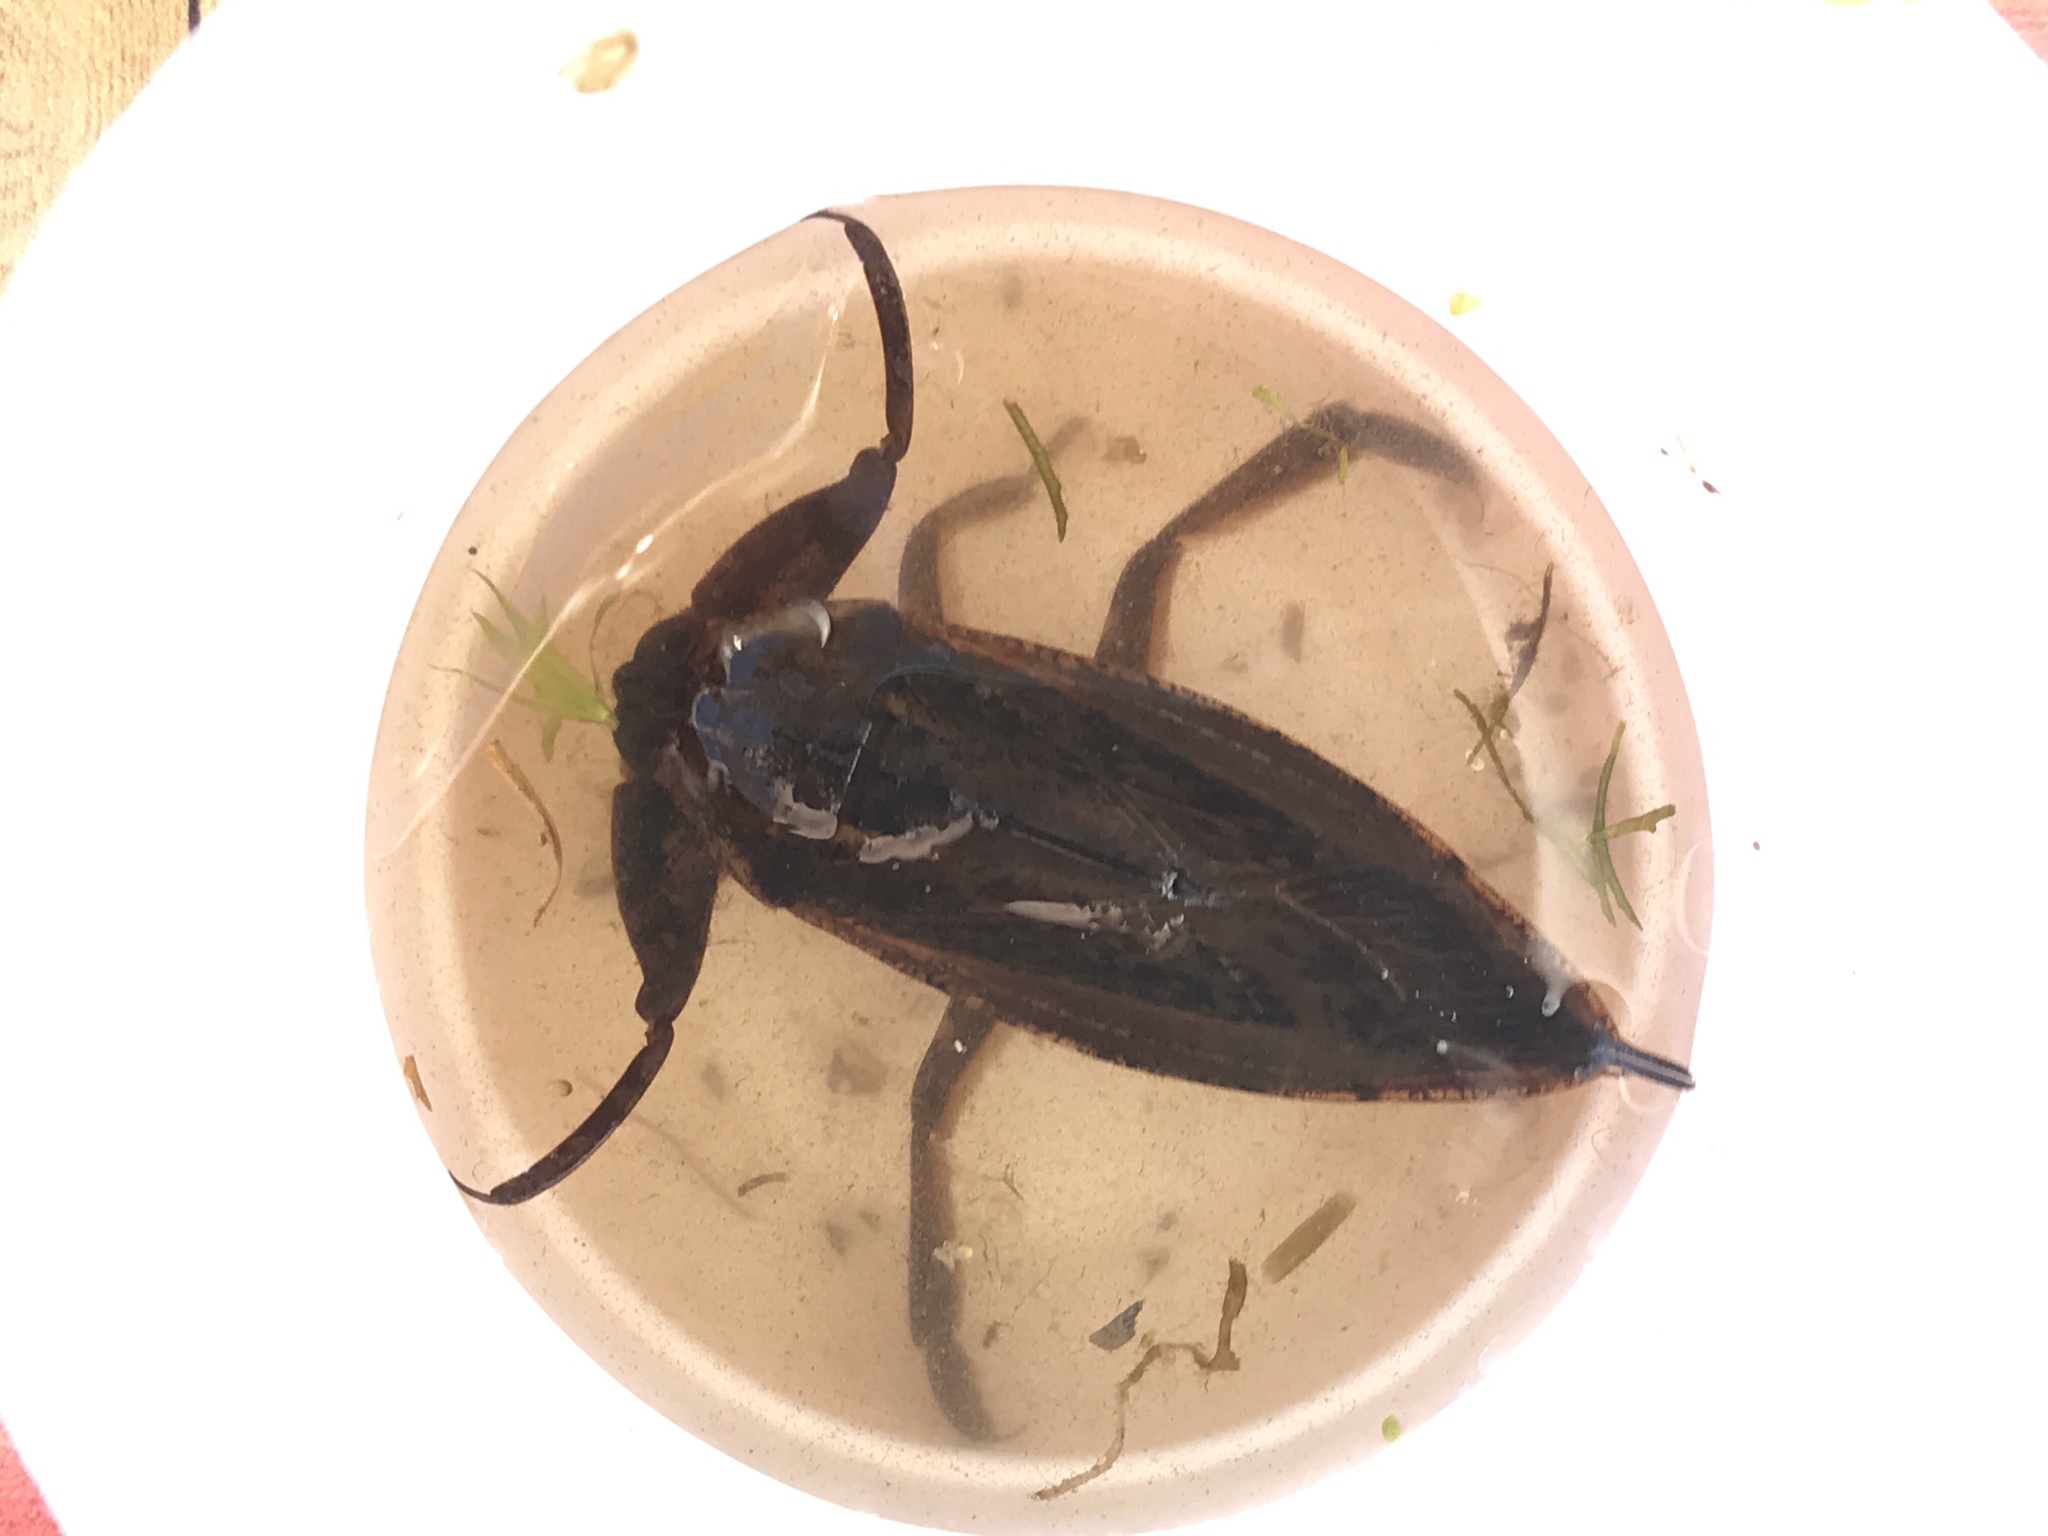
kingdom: Animalia
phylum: Arthropoda
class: Insecta
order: Hemiptera
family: Belostomatidae
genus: Lethocerus
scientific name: Lethocerus
